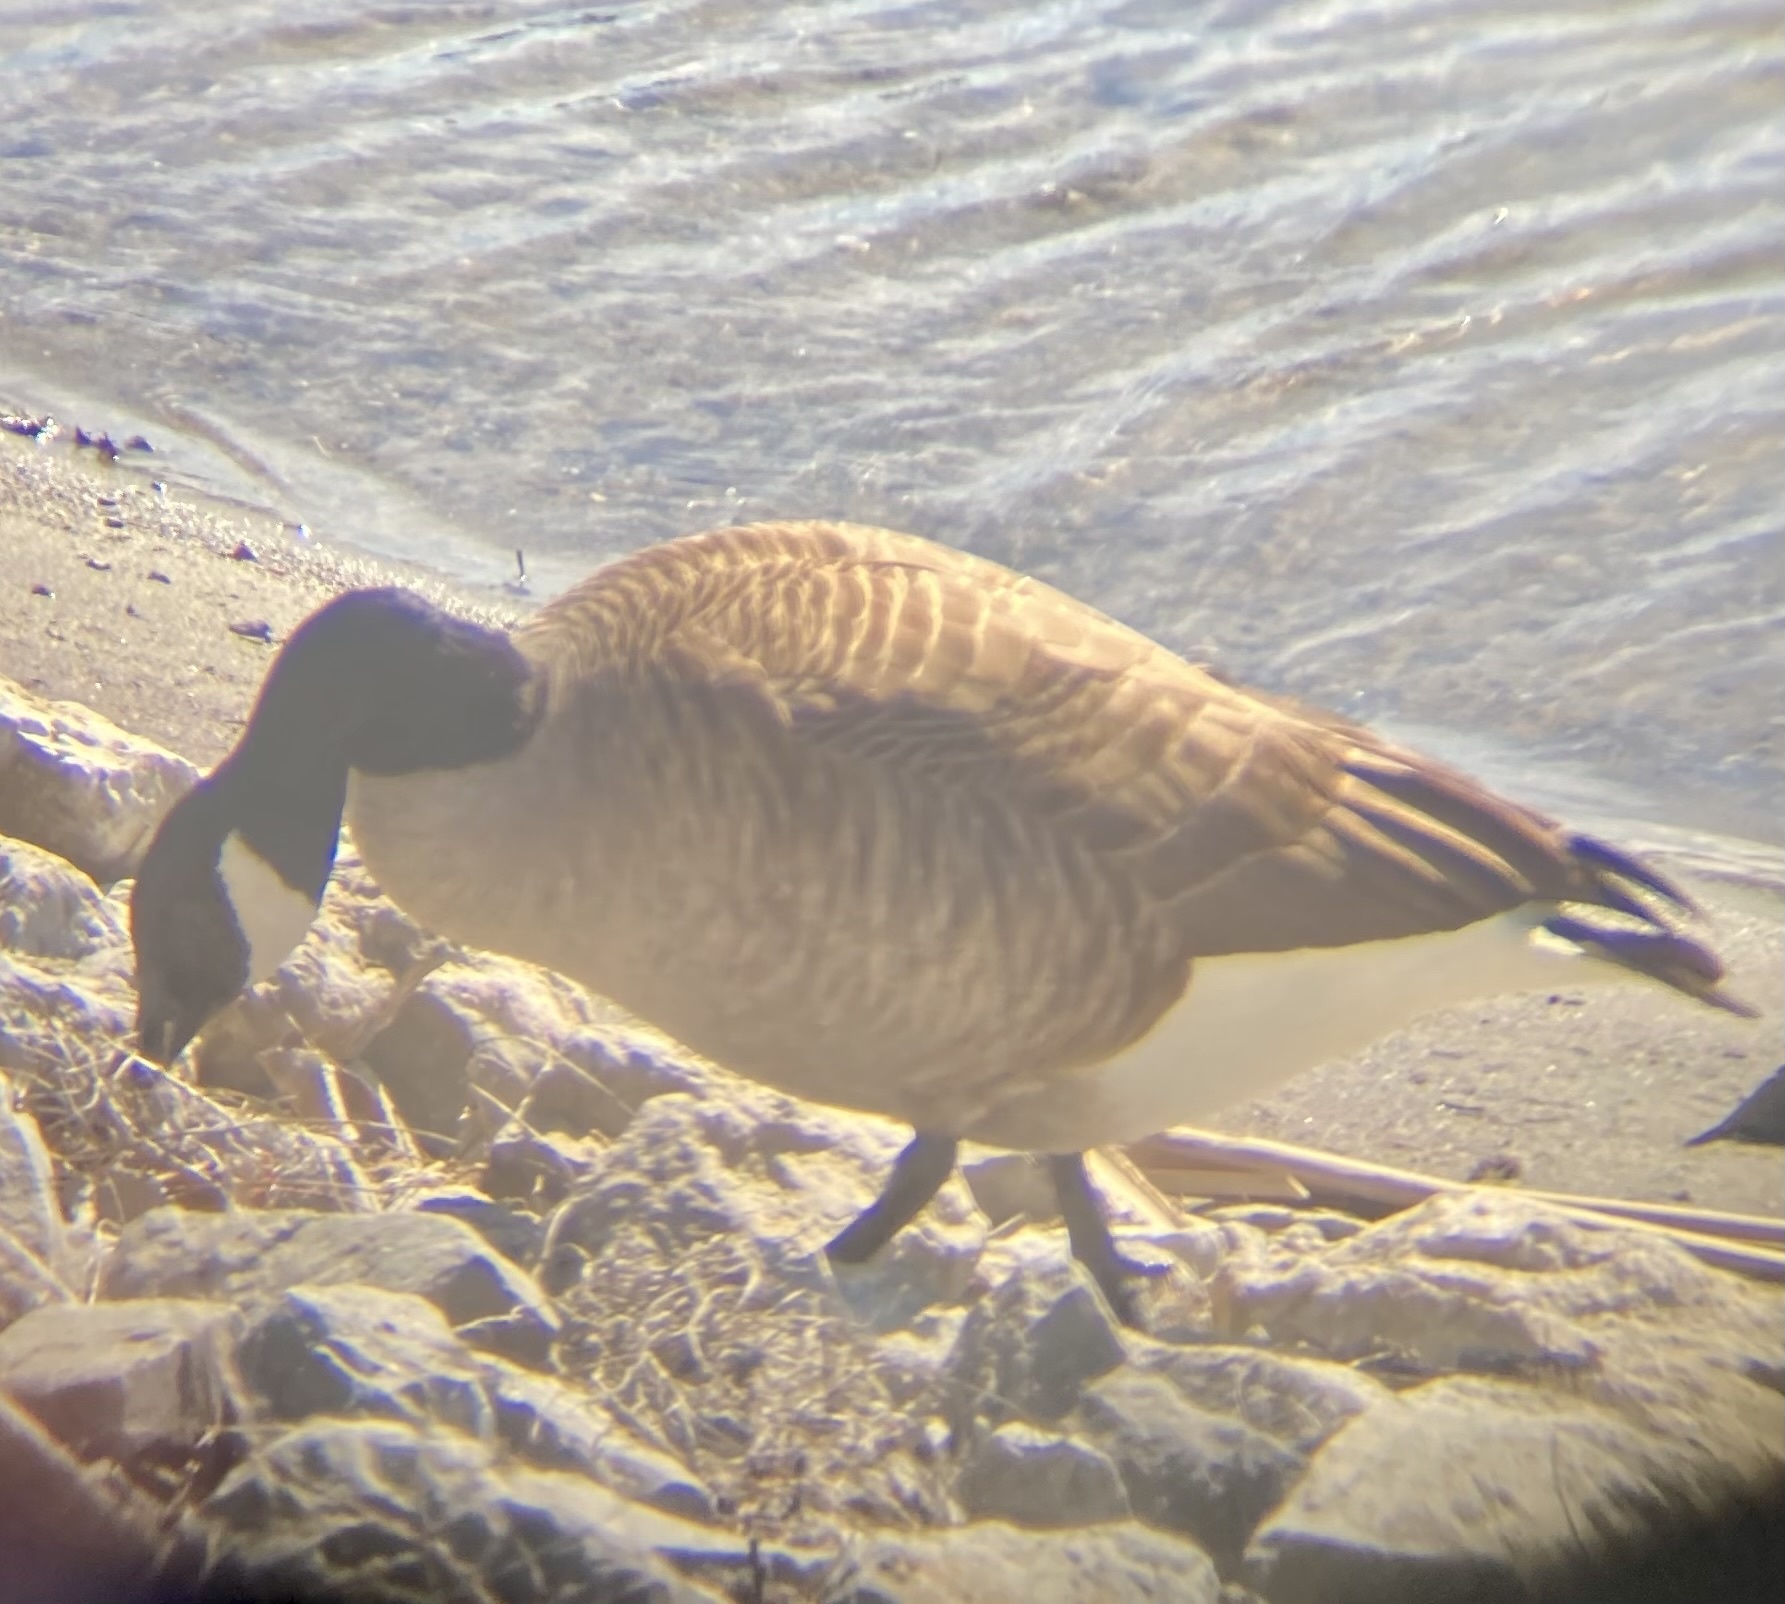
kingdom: Animalia
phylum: Chordata
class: Aves
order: Anseriformes
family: Anatidae
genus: Branta
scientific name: Branta canadensis
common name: Canada goose
